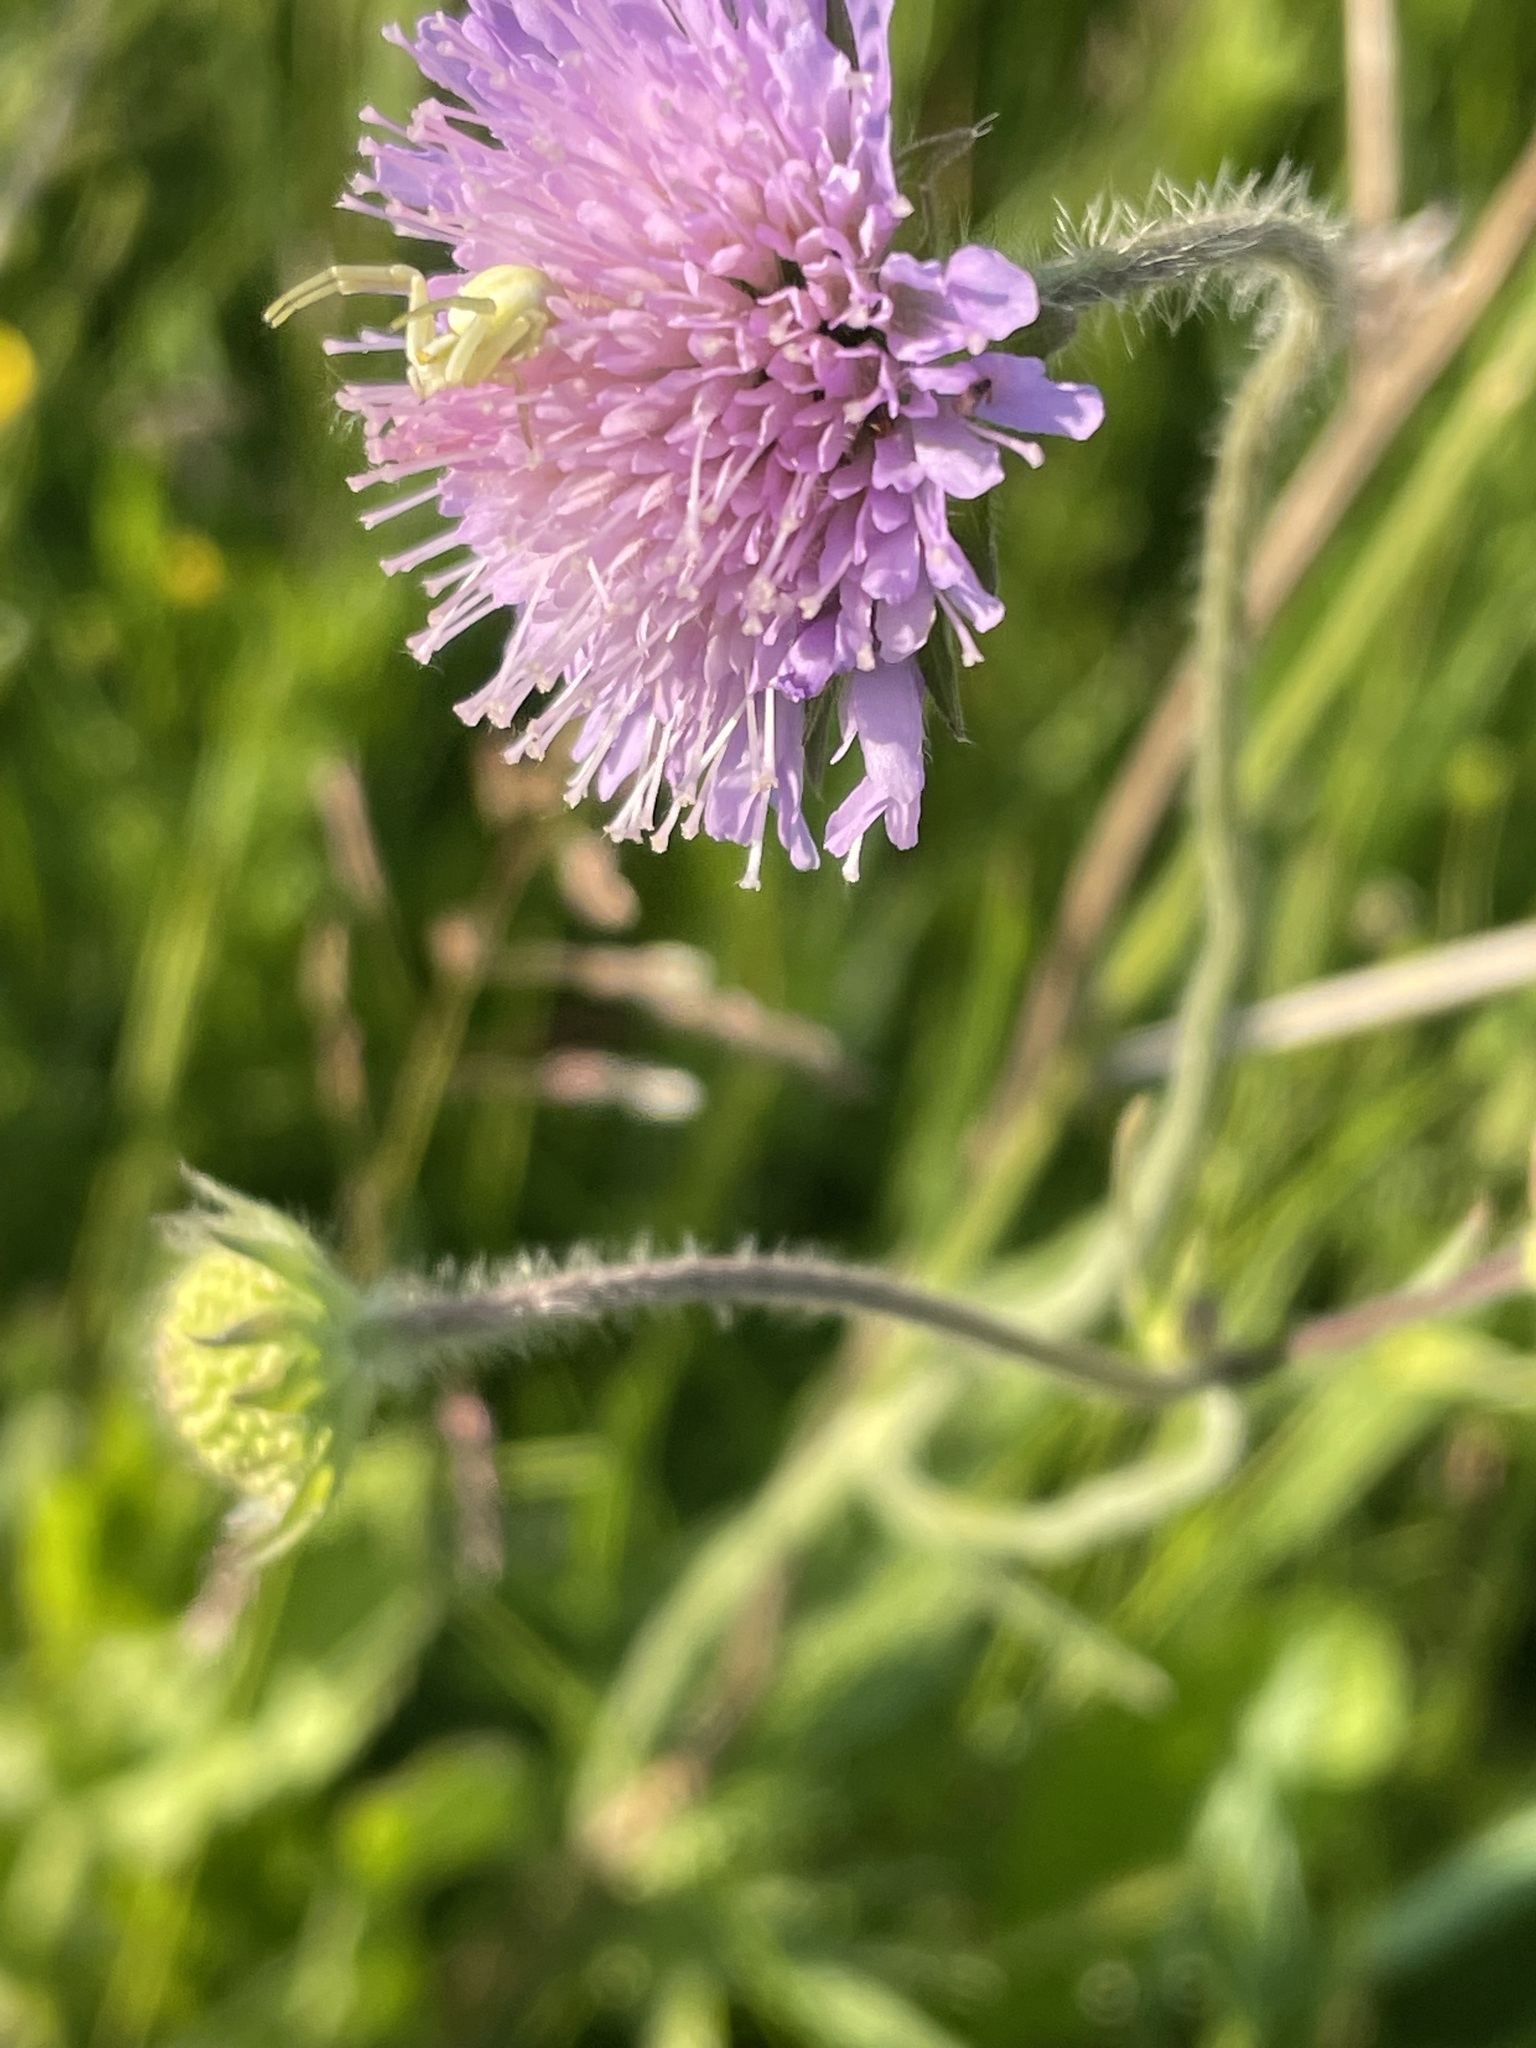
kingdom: Plantae
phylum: Tracheophyta
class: Magnoliopsida
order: Dipsacales
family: Caprifoliaceae
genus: Knautia
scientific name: Knautia arvensis
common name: Field scabiosa
